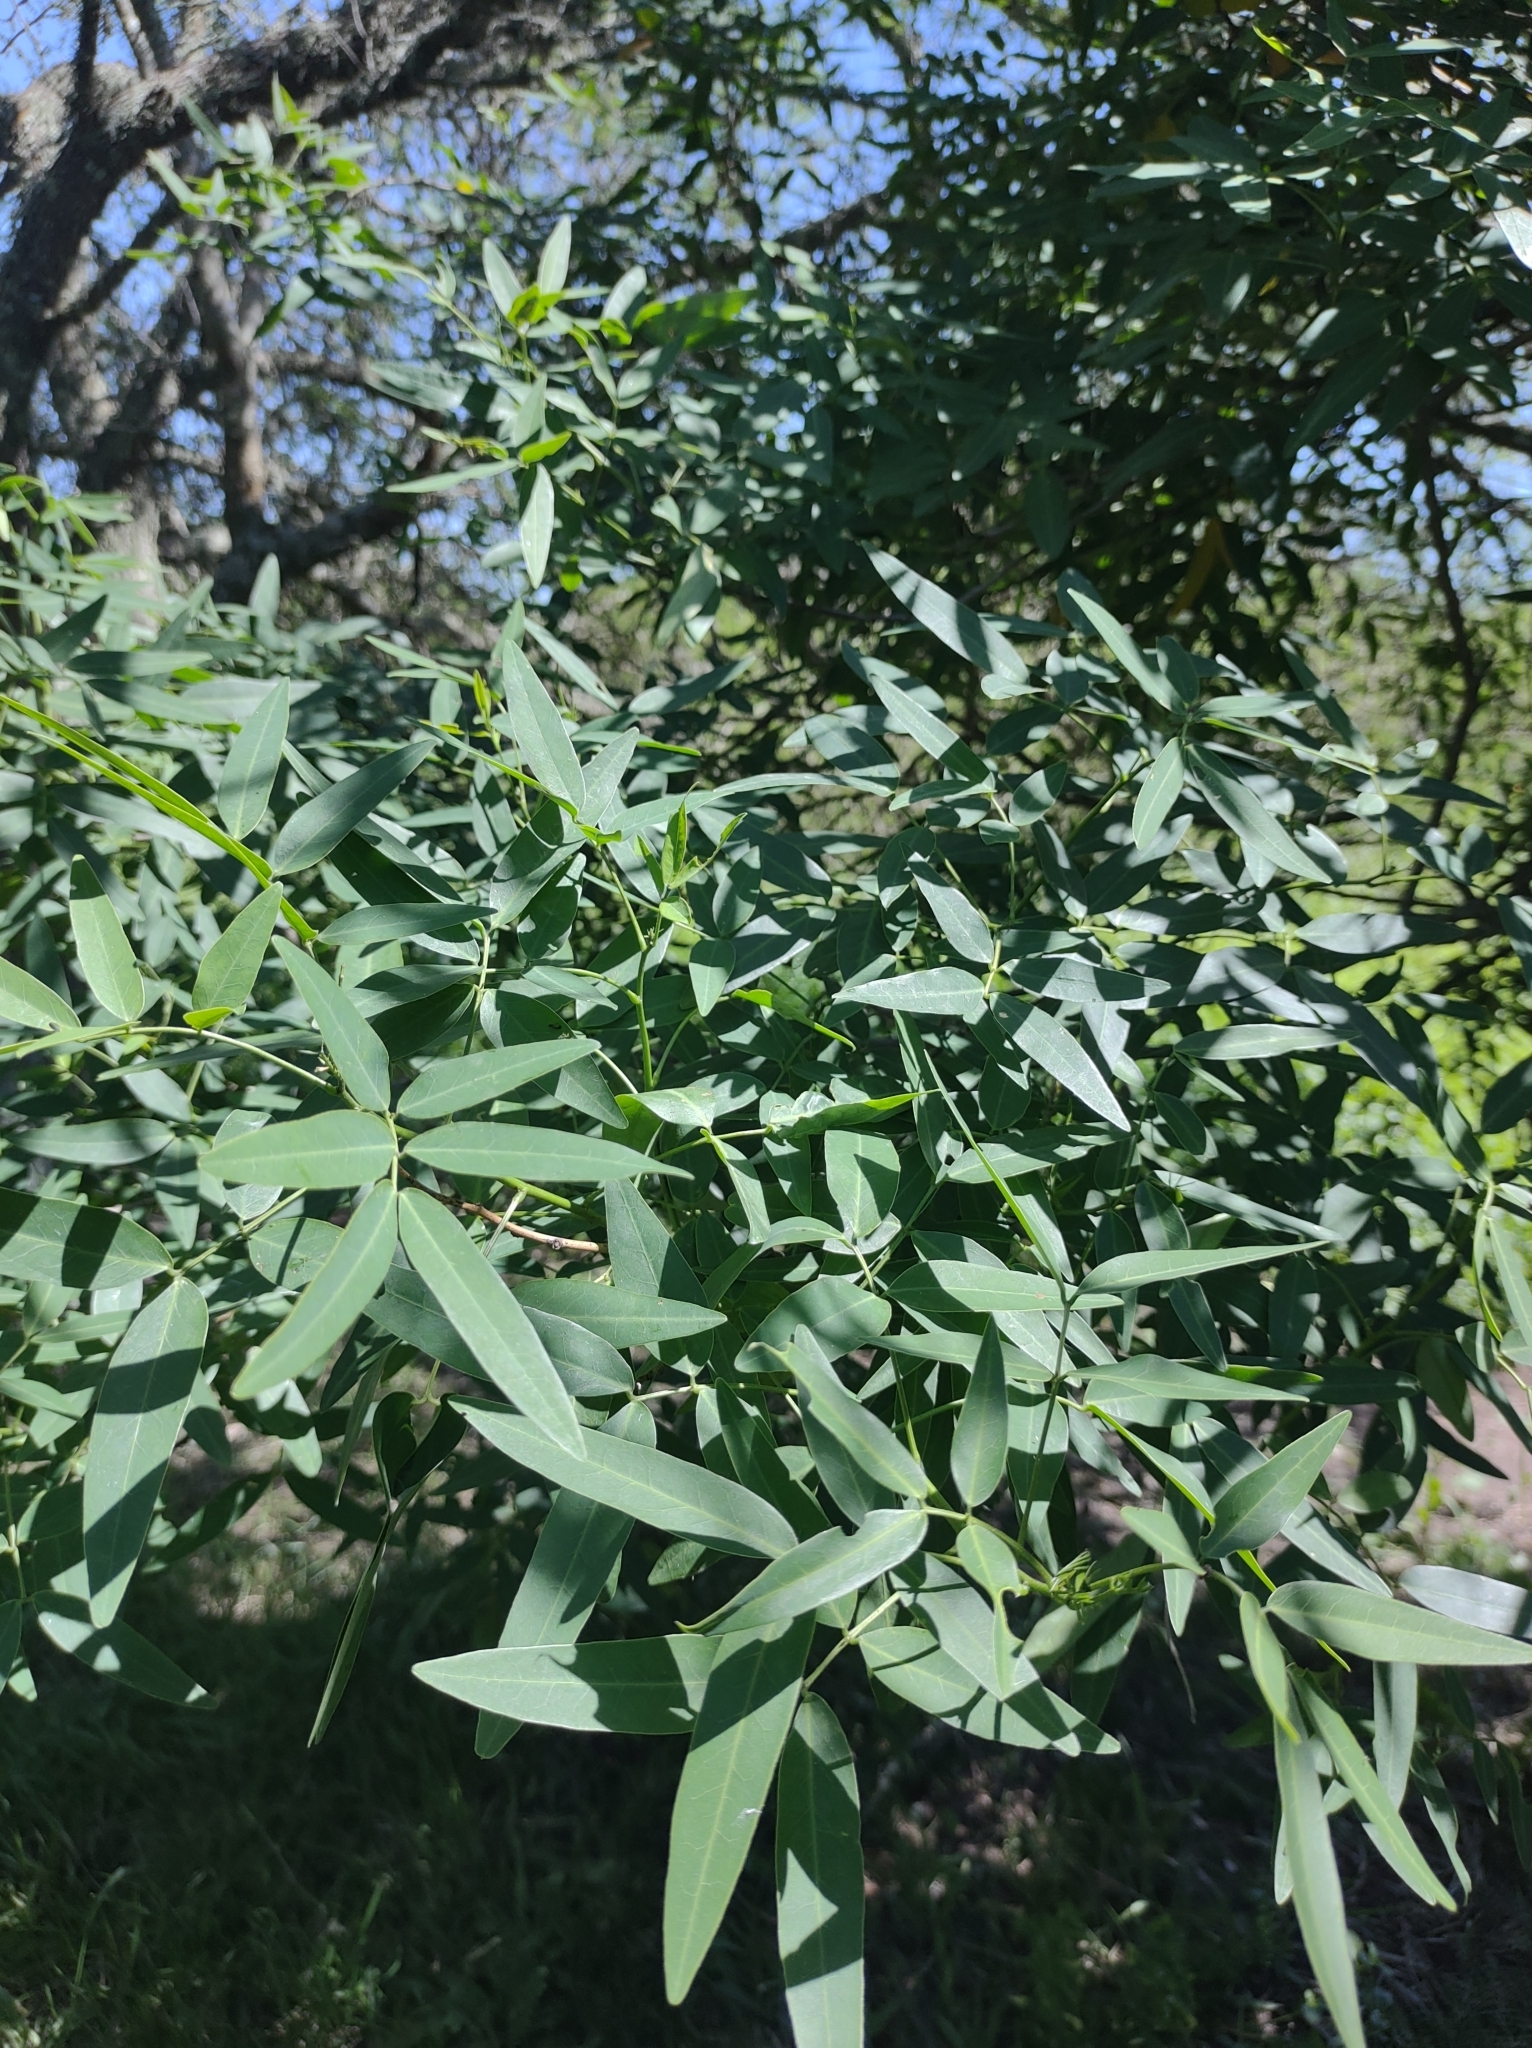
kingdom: Plantae
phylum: Tracheophyta
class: Magnoliopsida
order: Fabales
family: Fabaceae
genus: Senna
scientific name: Senna corymbosa
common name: Argentine senna
